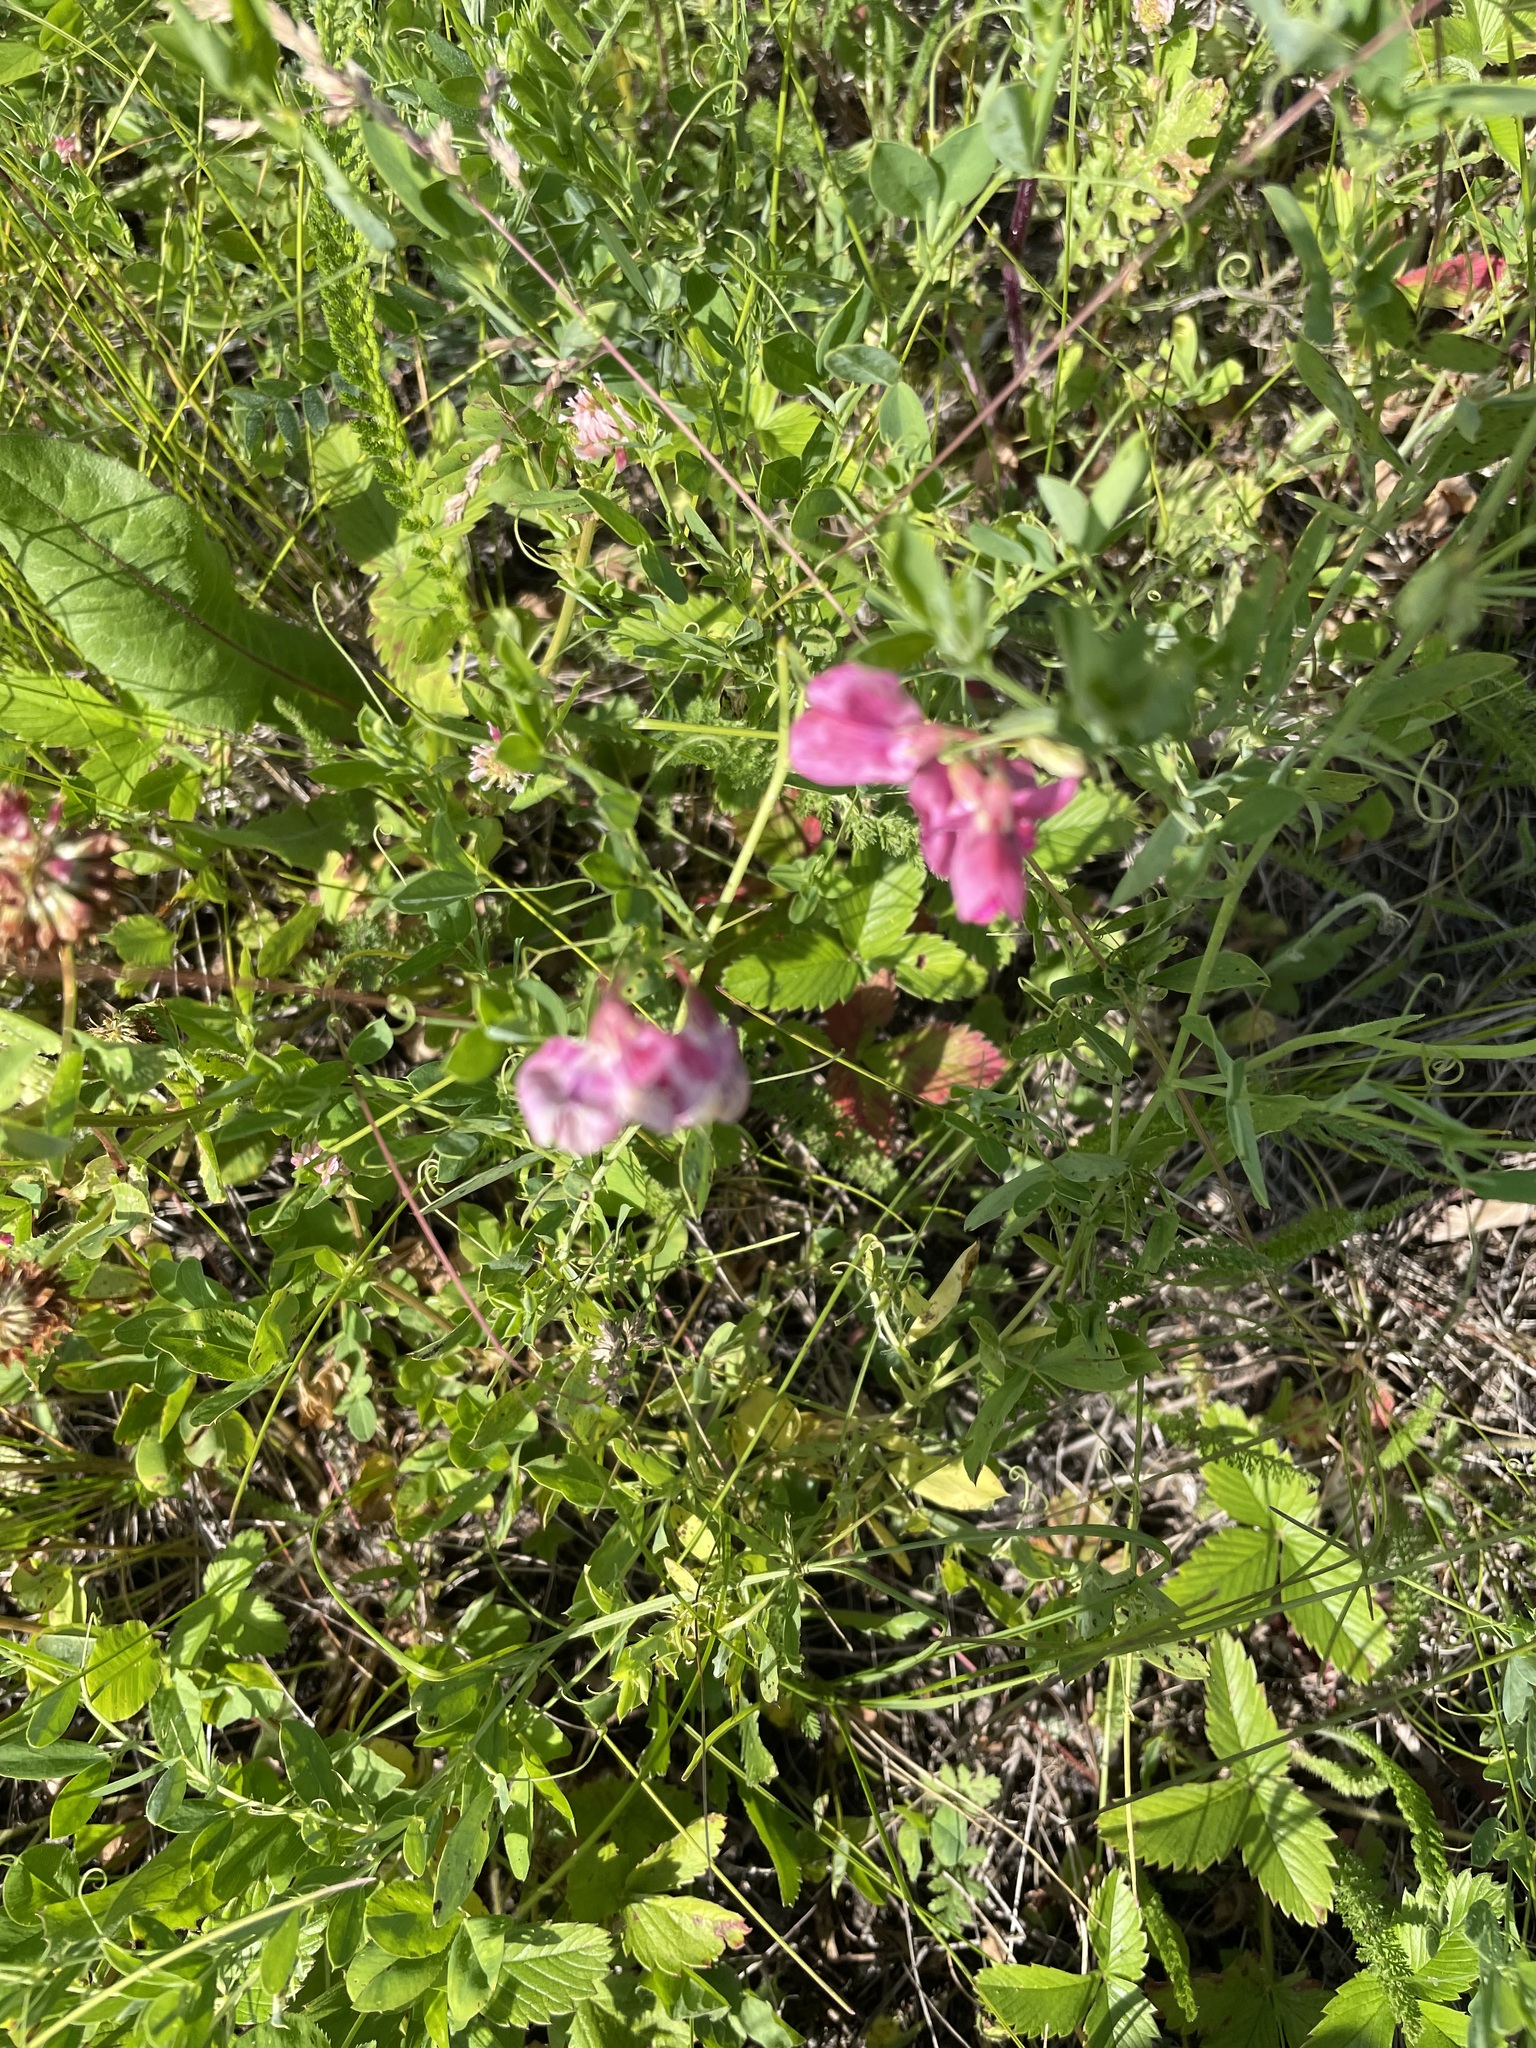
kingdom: Plantae
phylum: Tracheophyta
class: Magnoliopsida
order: Fabales
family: Fabaceae
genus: Lathyrus
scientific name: Lathyrus tuberosus
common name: Tuberous pea
